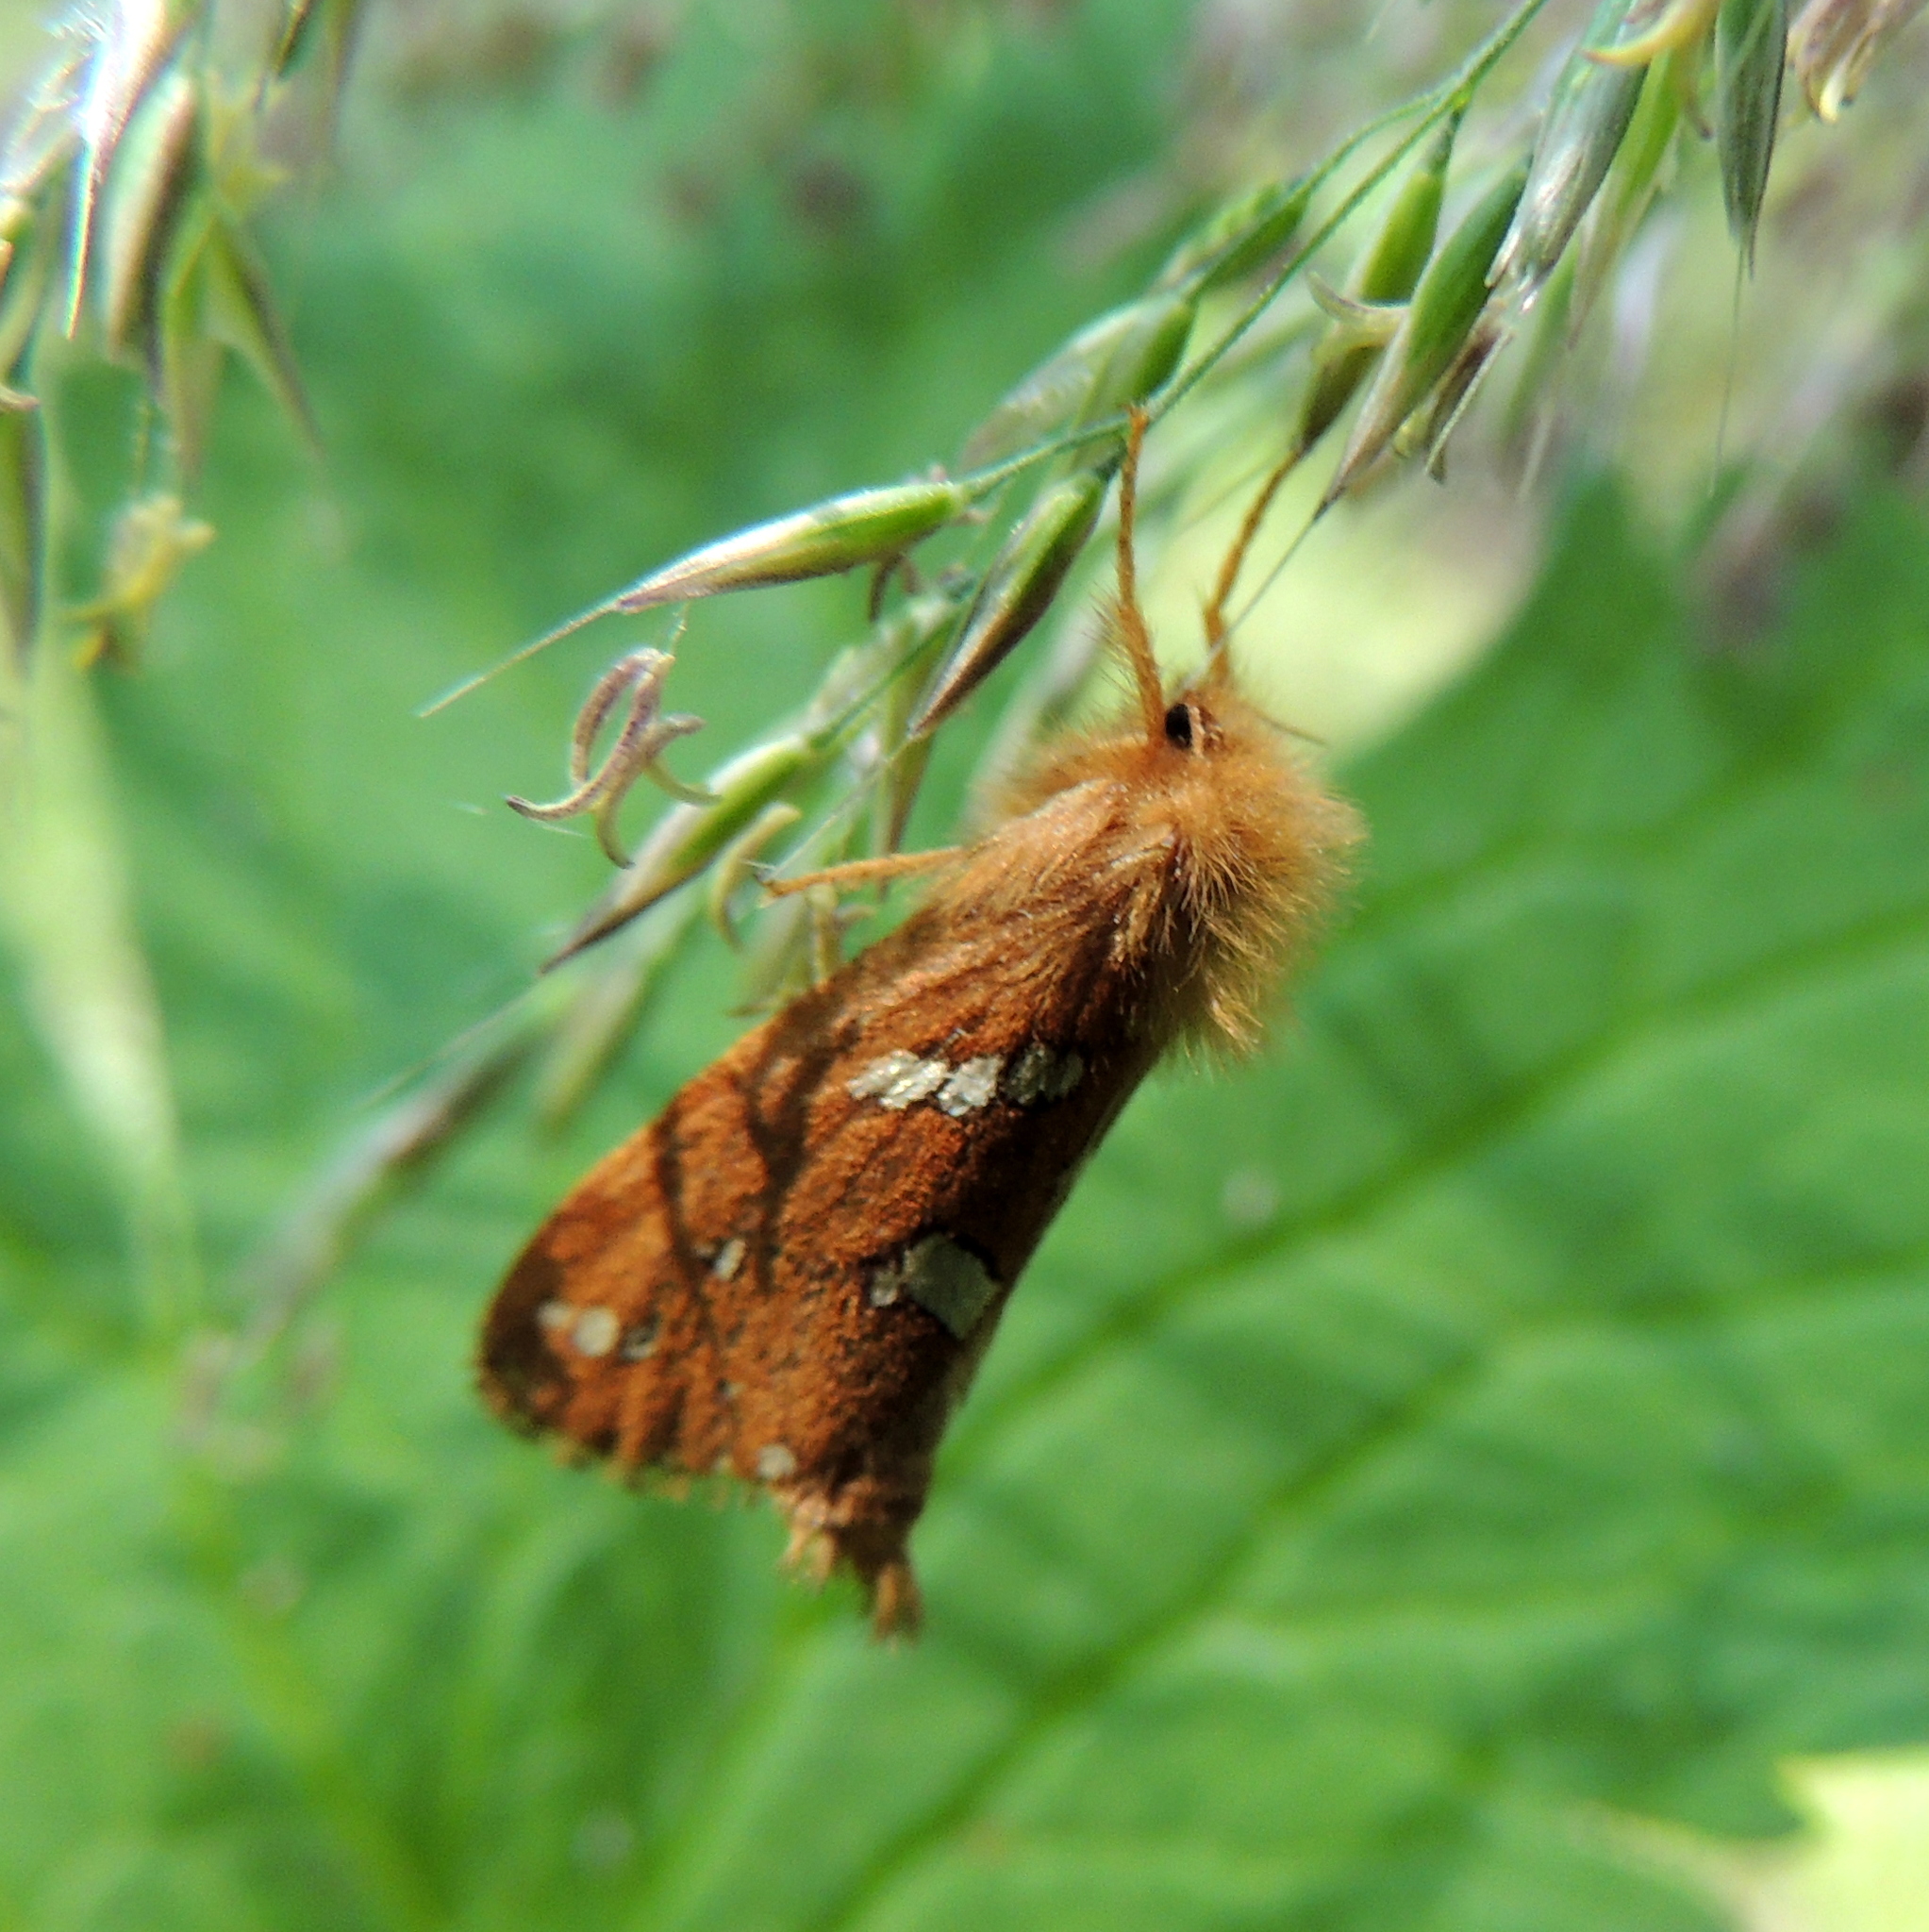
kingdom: Animalia
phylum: Arthropoda
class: Insecta
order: Lepidoptera
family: Hepialidae
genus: Phymatopus
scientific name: Phymatopus hecta
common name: Gold swift
